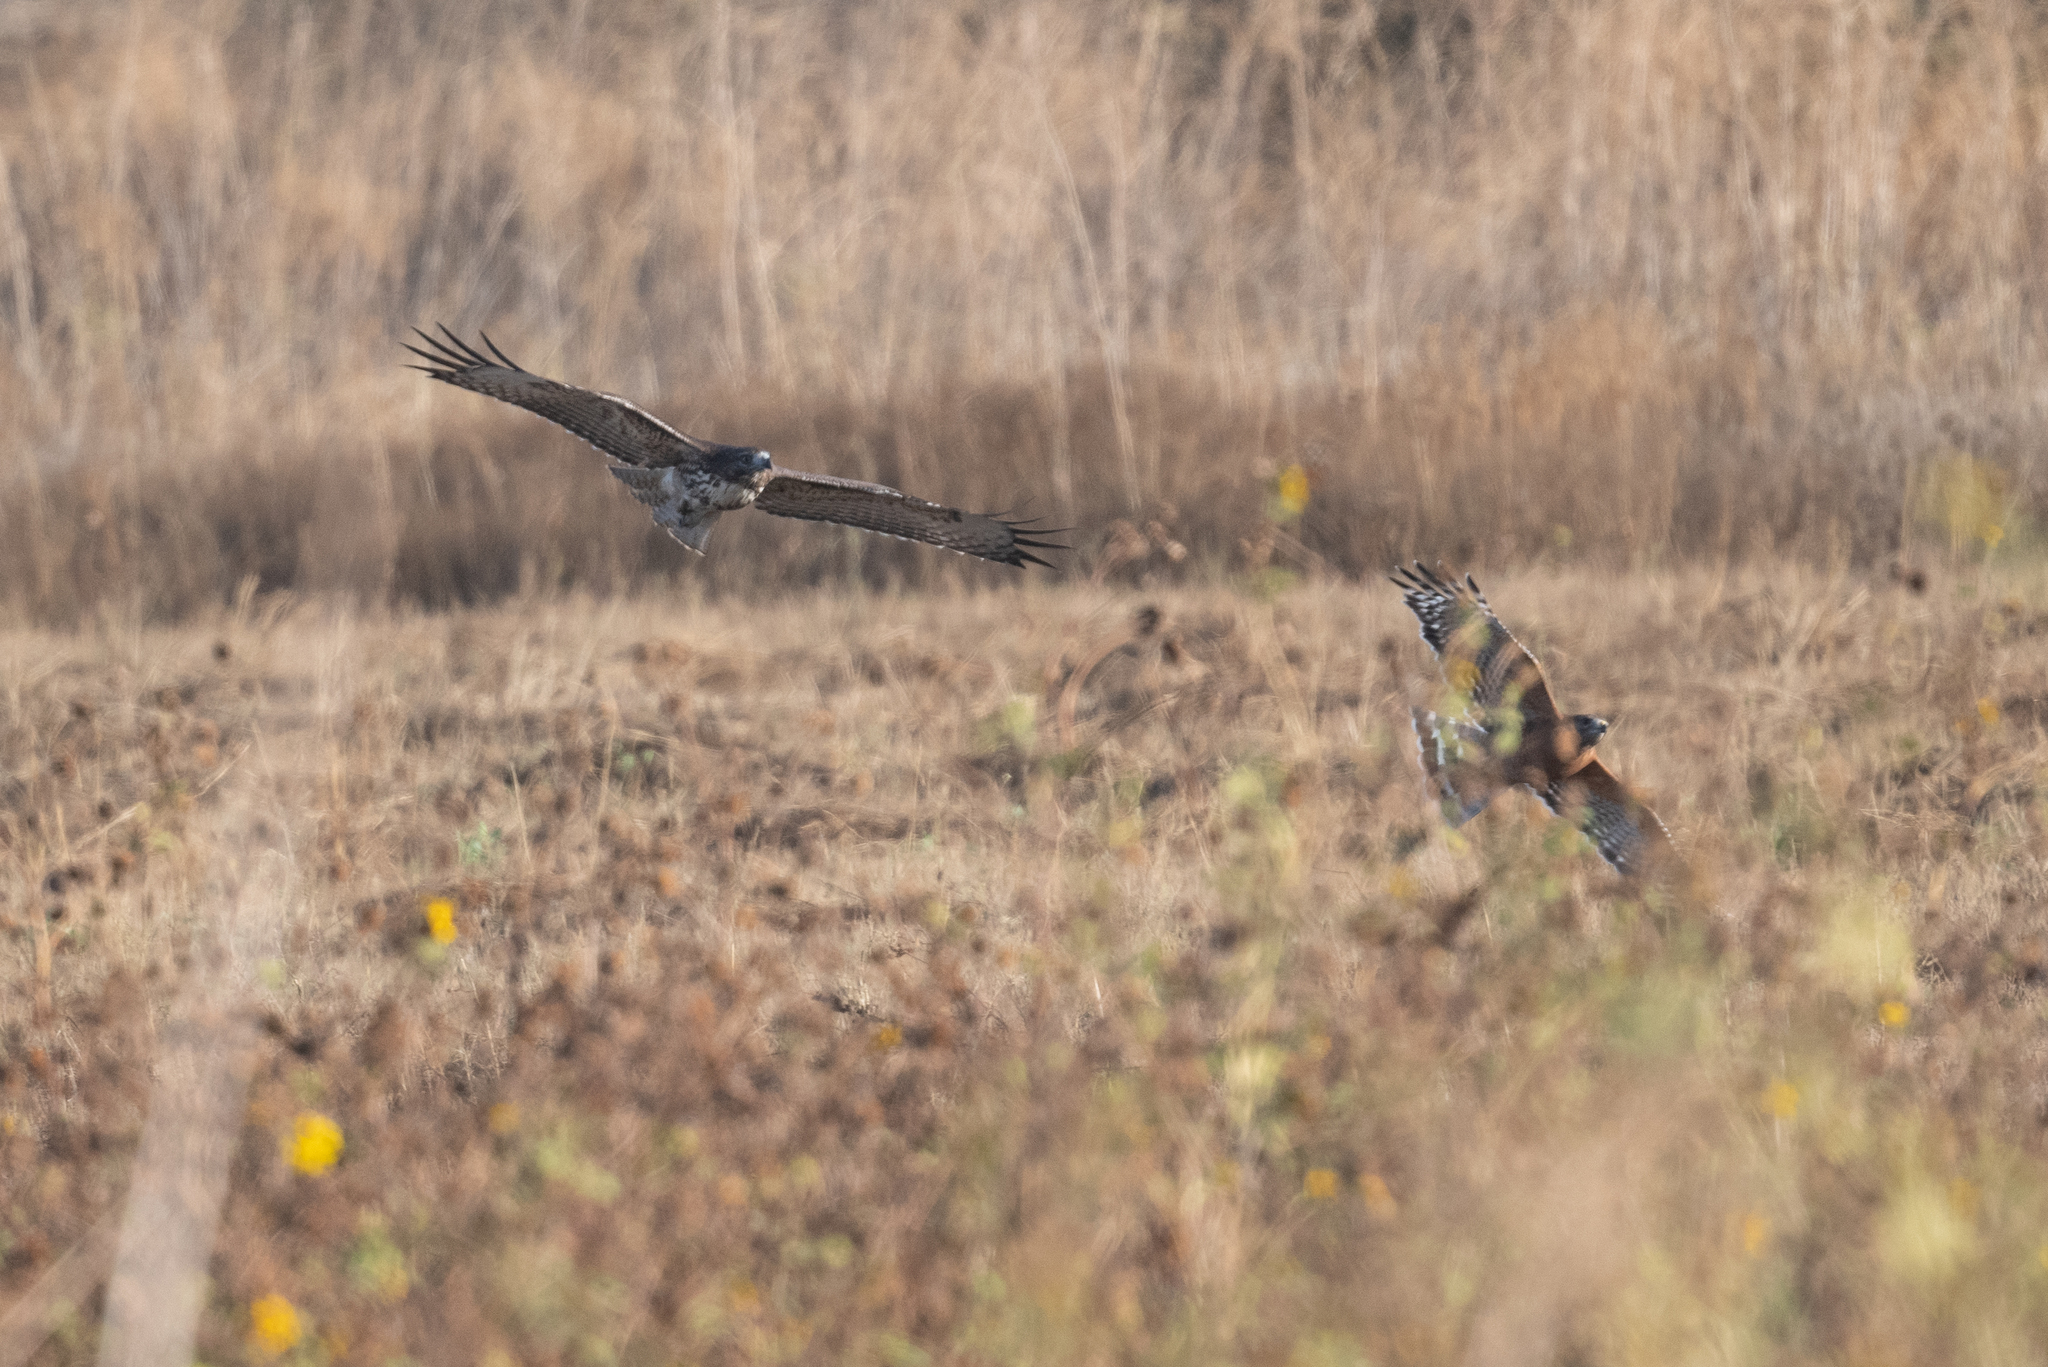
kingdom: Animalia
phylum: Chordata
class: Aves
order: Accipitriformes
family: Accipitridae
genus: Buteo
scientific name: Buteo jamaicensis
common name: Red-tailed hawk
